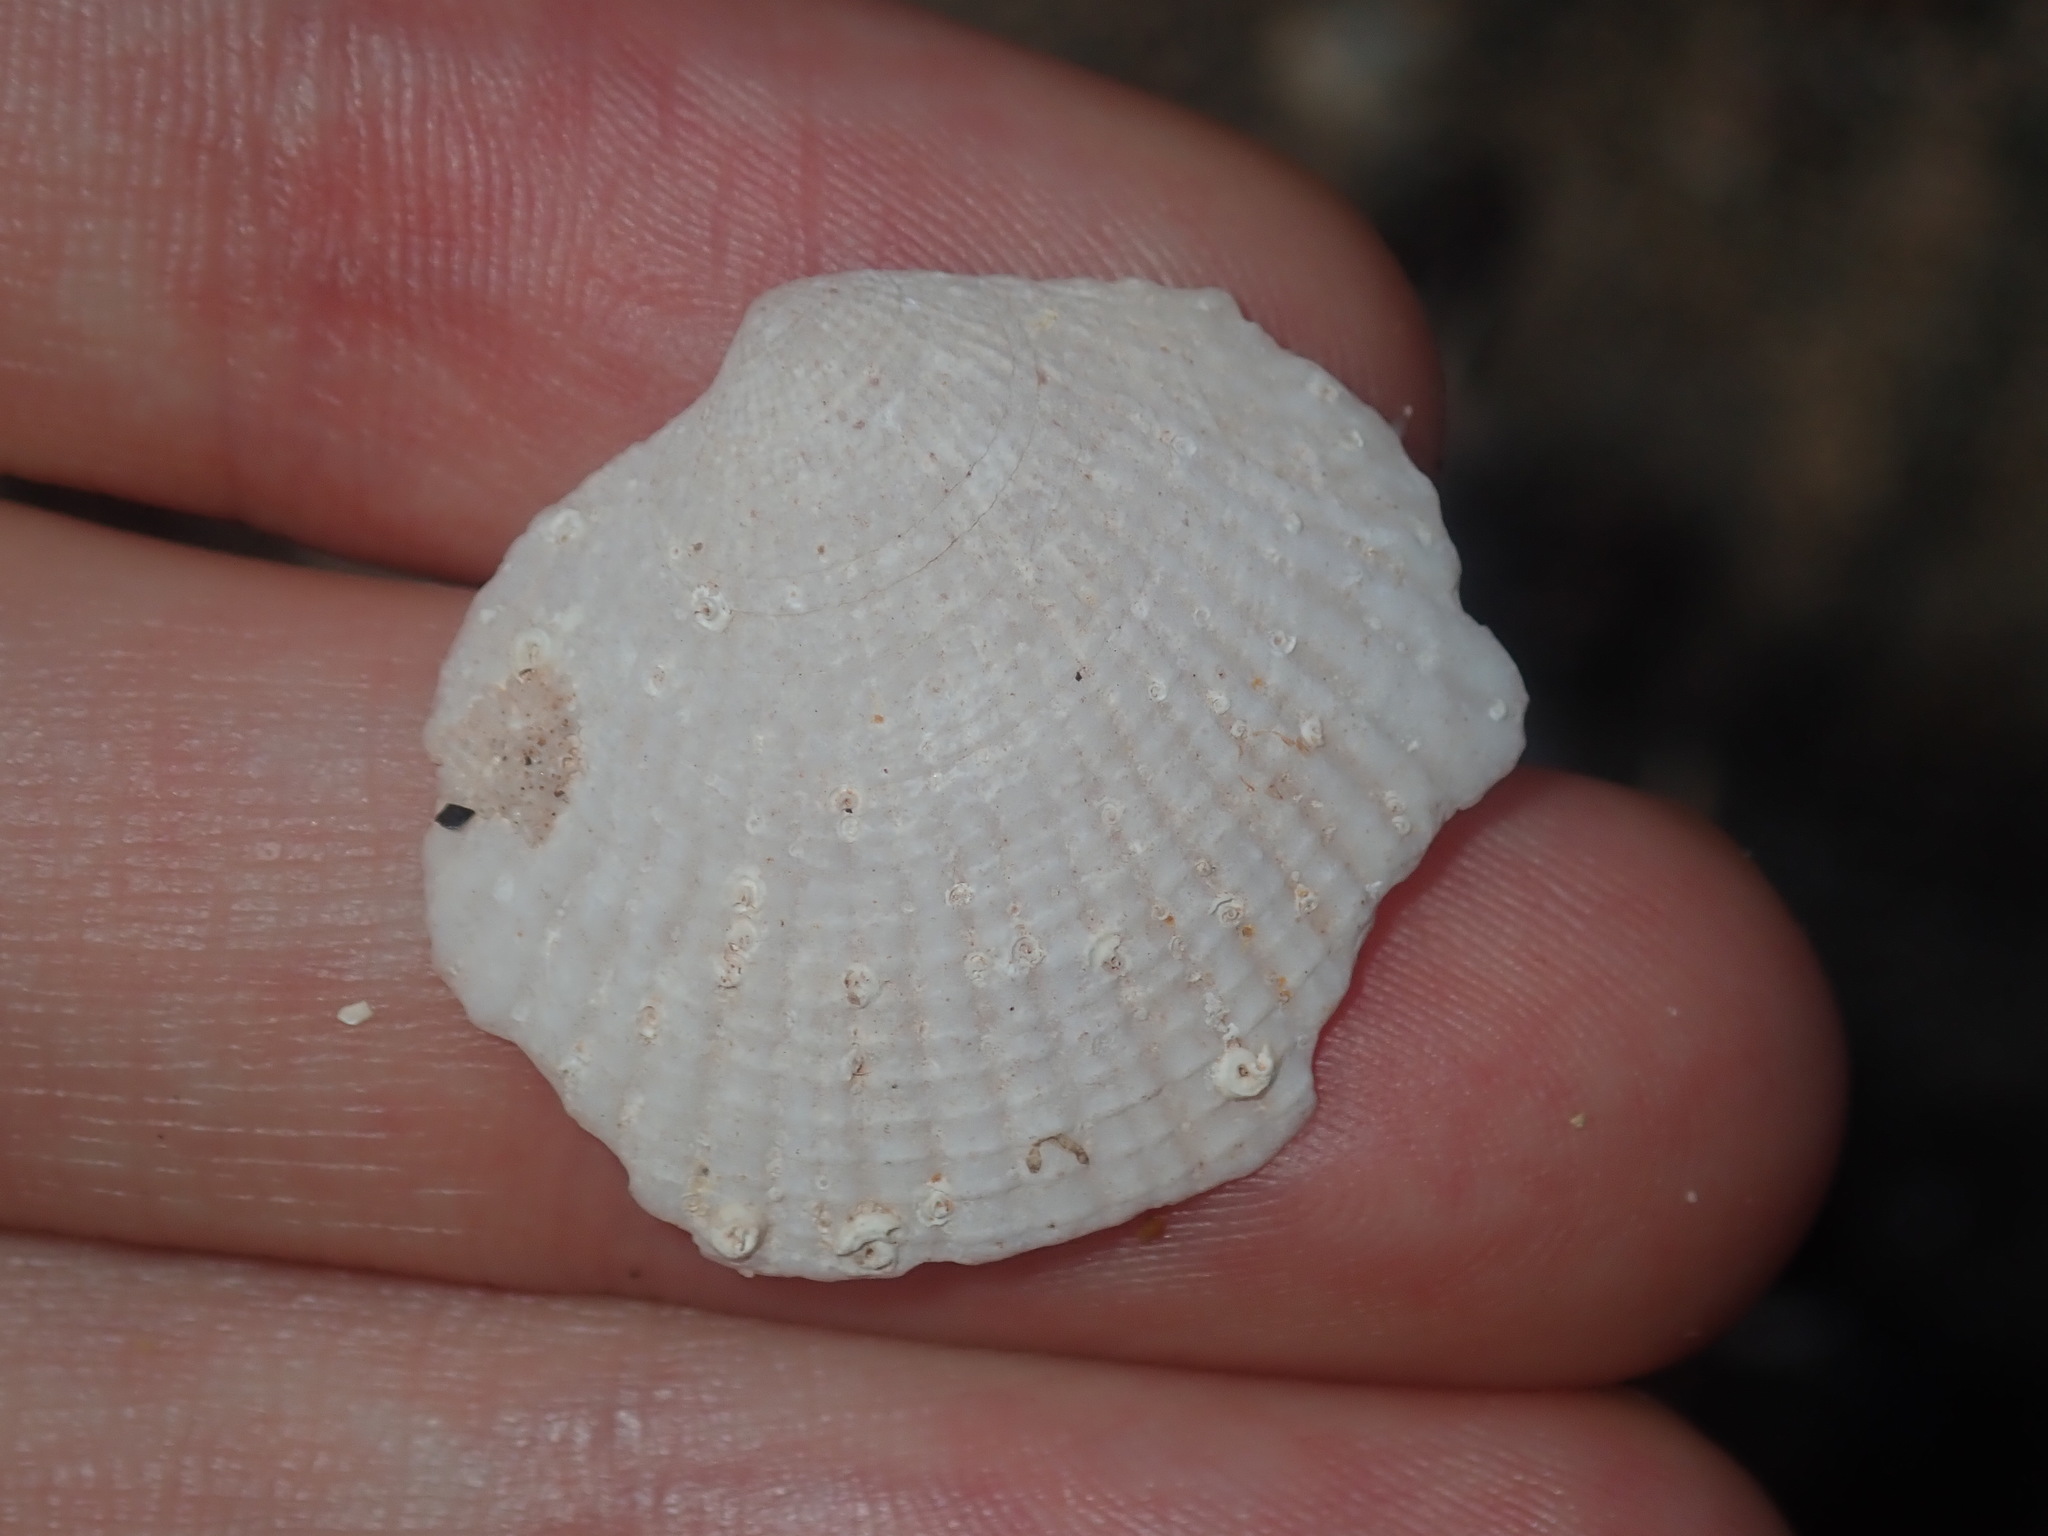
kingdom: Animalia
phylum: Mollusca
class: Bivalvia
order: Lucinida
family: Lucinidae
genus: Codakia
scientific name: Codakia rugifera
